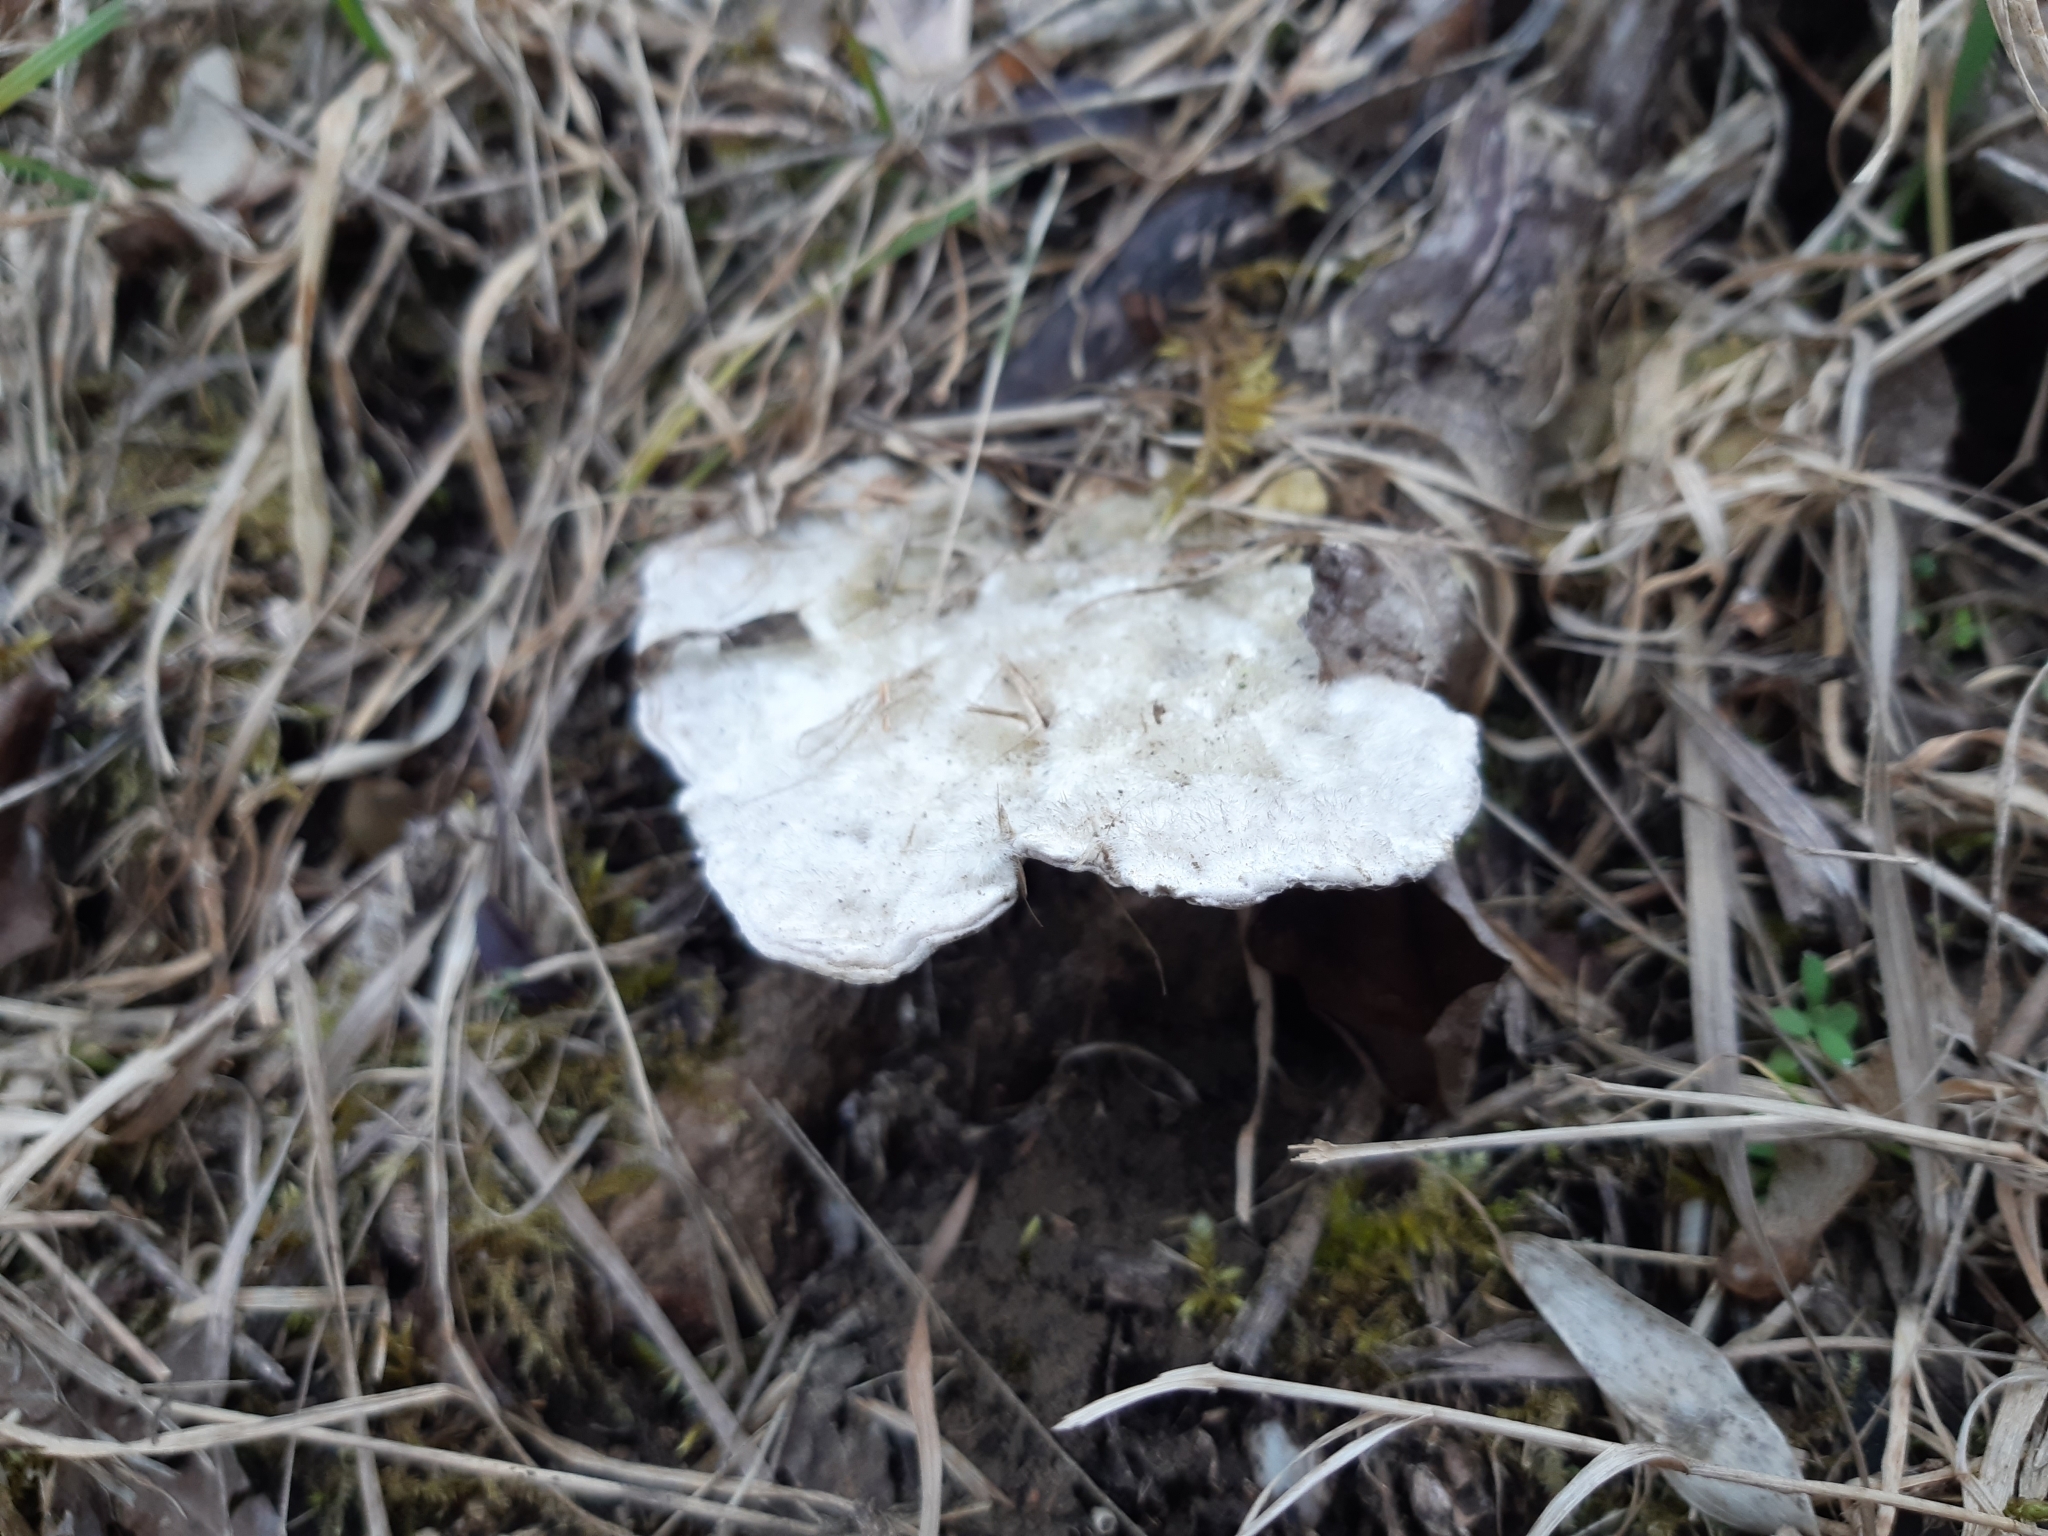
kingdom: Fungi
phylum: Basidiomycota
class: Agaricomycetes
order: Polyporales
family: Polyporaceae
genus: Trametes
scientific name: Trametes hirsuta
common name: Hairy bracket
